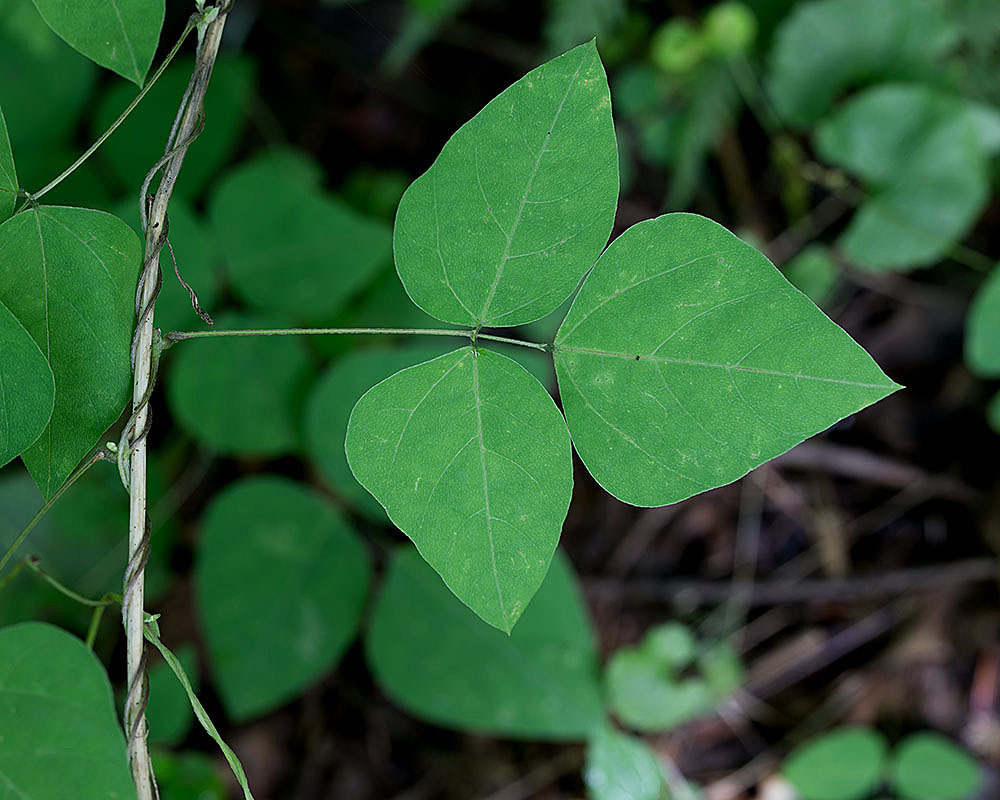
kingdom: Plantae
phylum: Tracheophyta
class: Magnoliopsida
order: Fabales
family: Fabaceae
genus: Amphicarpaea
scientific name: Amphicarpaea bracteata
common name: American hog peanut
